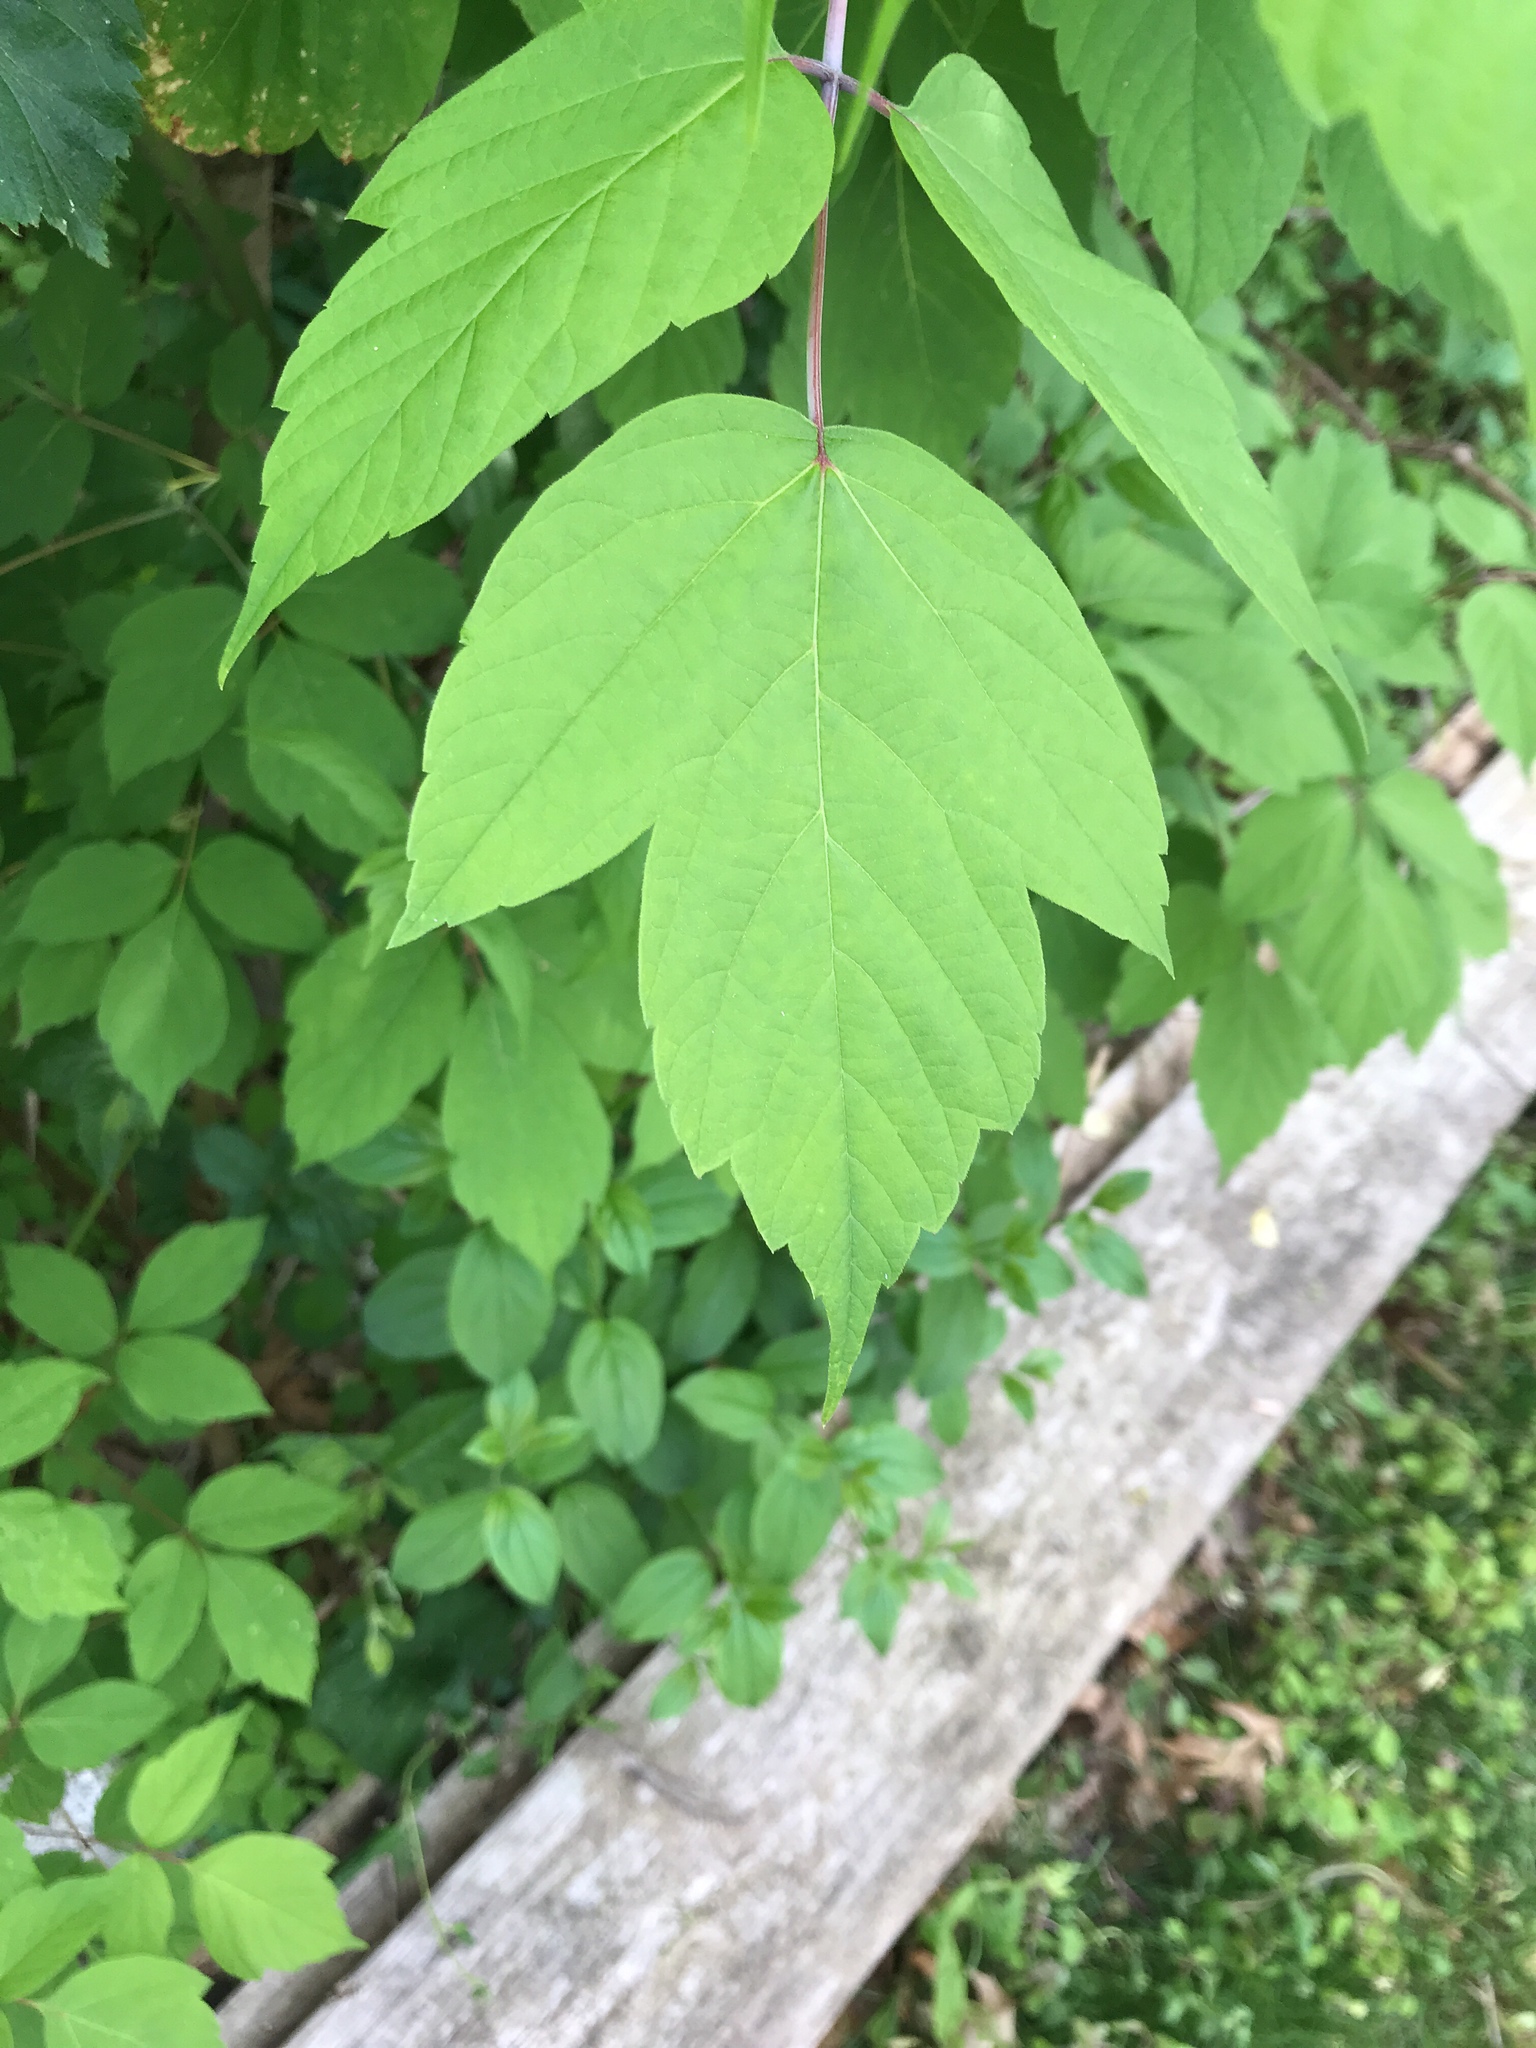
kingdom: Plantae
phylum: Tracheophyta
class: Magnoliopsida
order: Sapindales
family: Sapindaceae
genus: Acer
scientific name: Acer negundo
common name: Ashleaf maple
